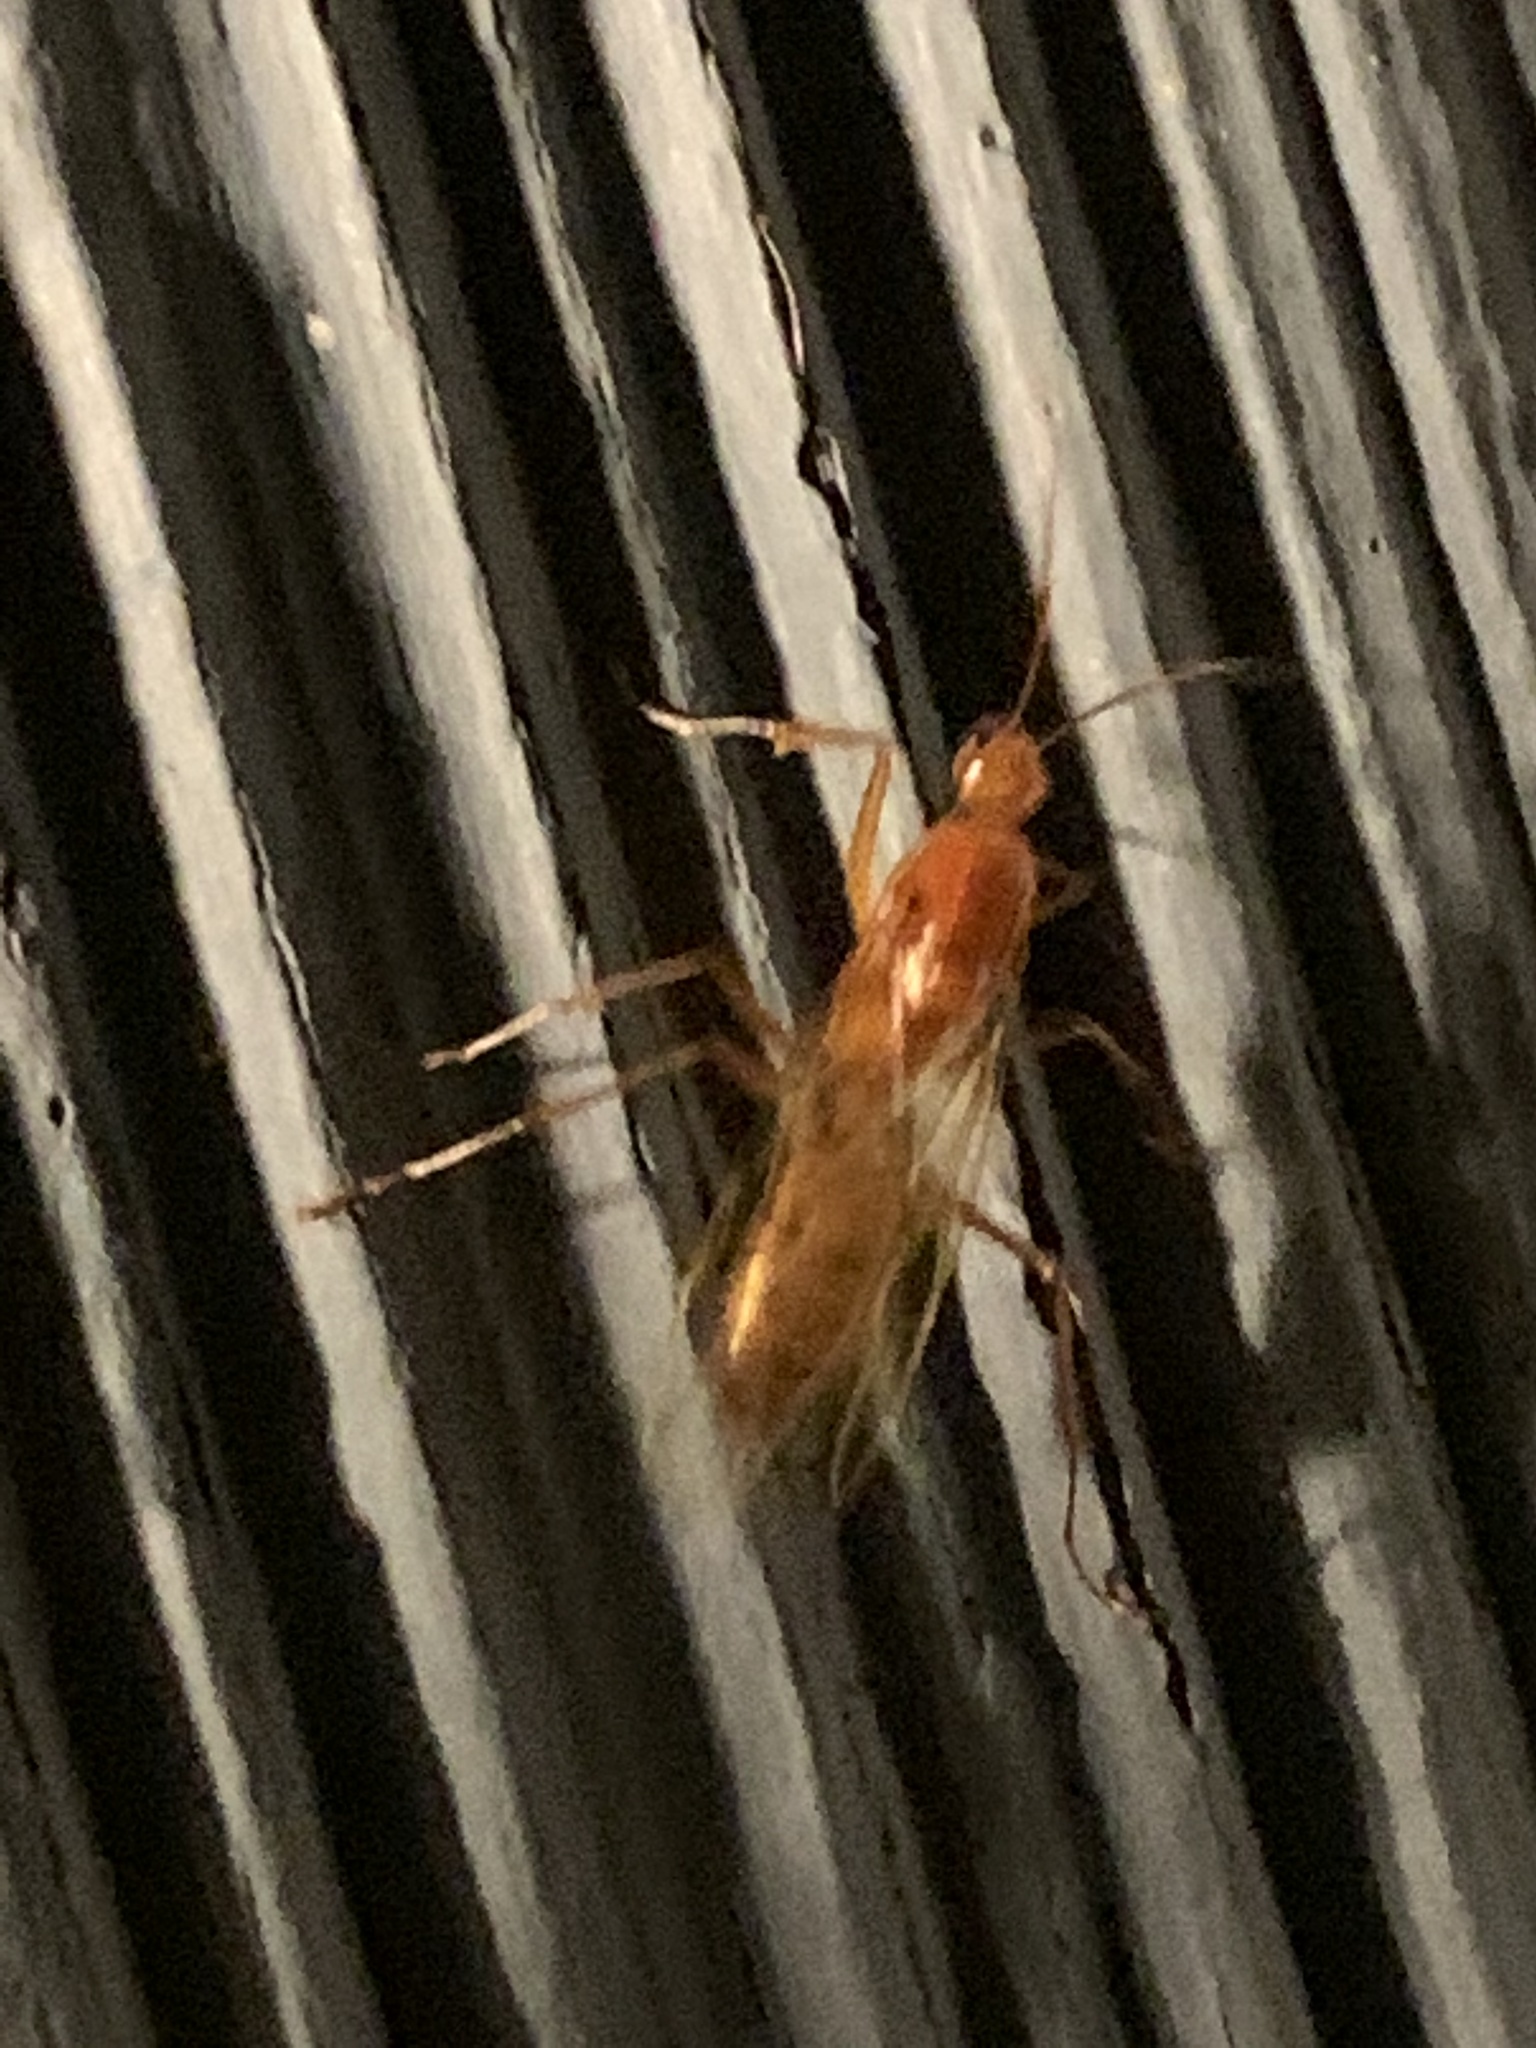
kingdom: Animalia
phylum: Arthropoda
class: Insecta
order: Hymenoptera
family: Formicidae
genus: Camponotus
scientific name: Camponotus castaneus
